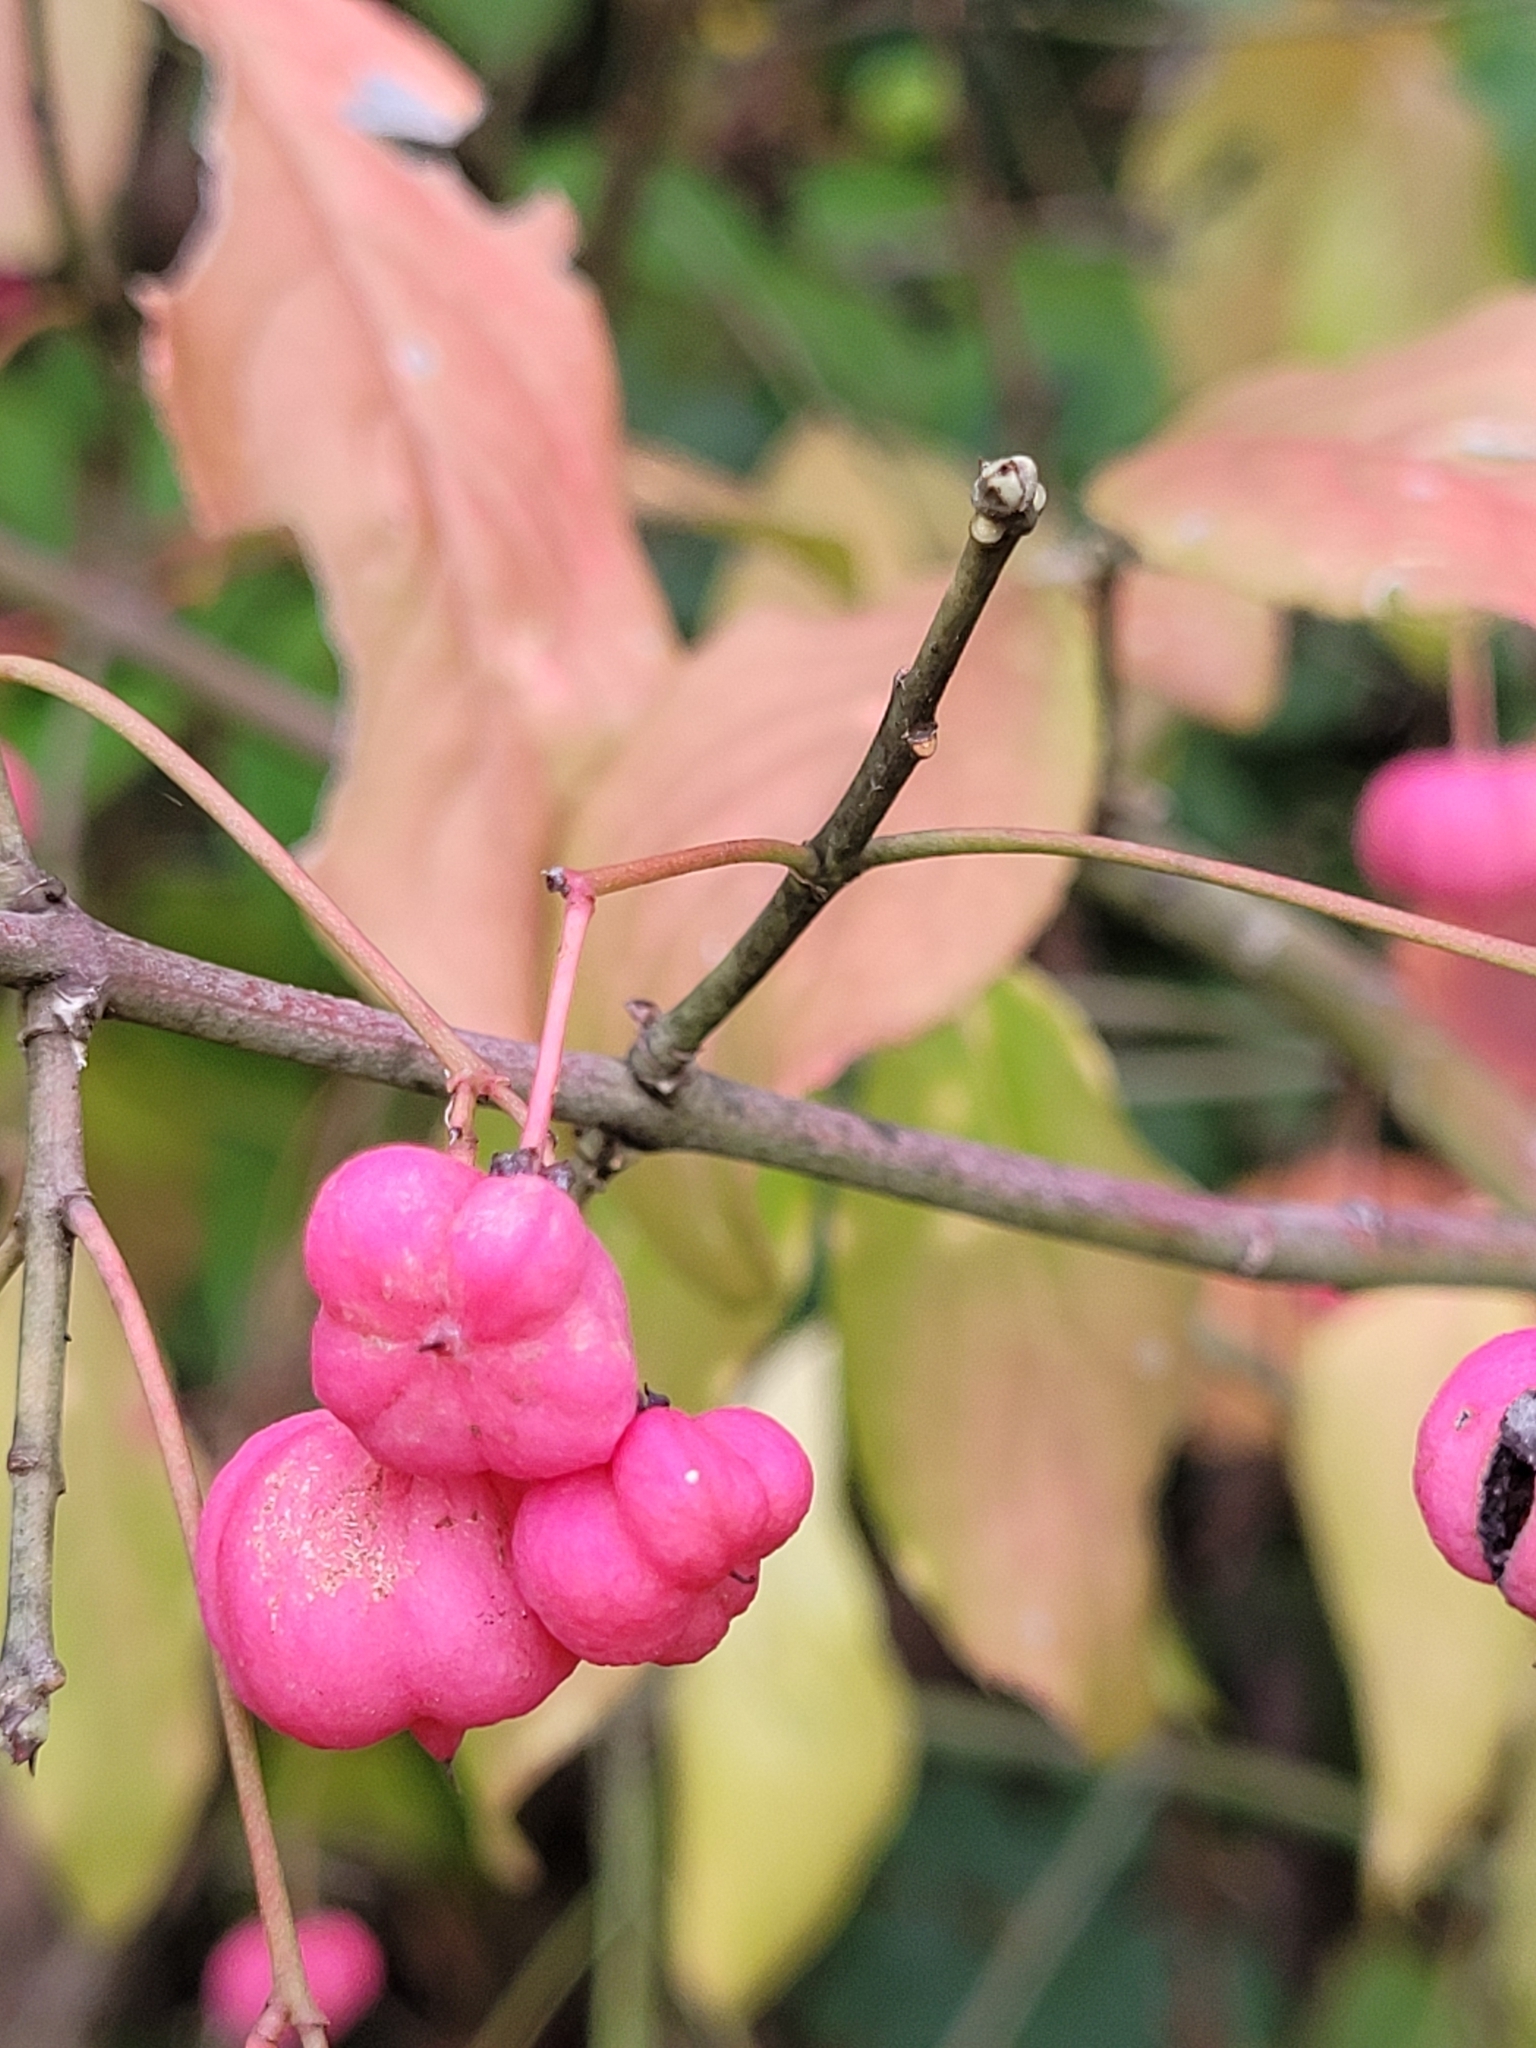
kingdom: Plantae
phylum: Tracheophyta
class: Magnoliopsida
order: Celastrales
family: Celastraceae
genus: Euonymus
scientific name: Euonymus europaeus
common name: Spindle
